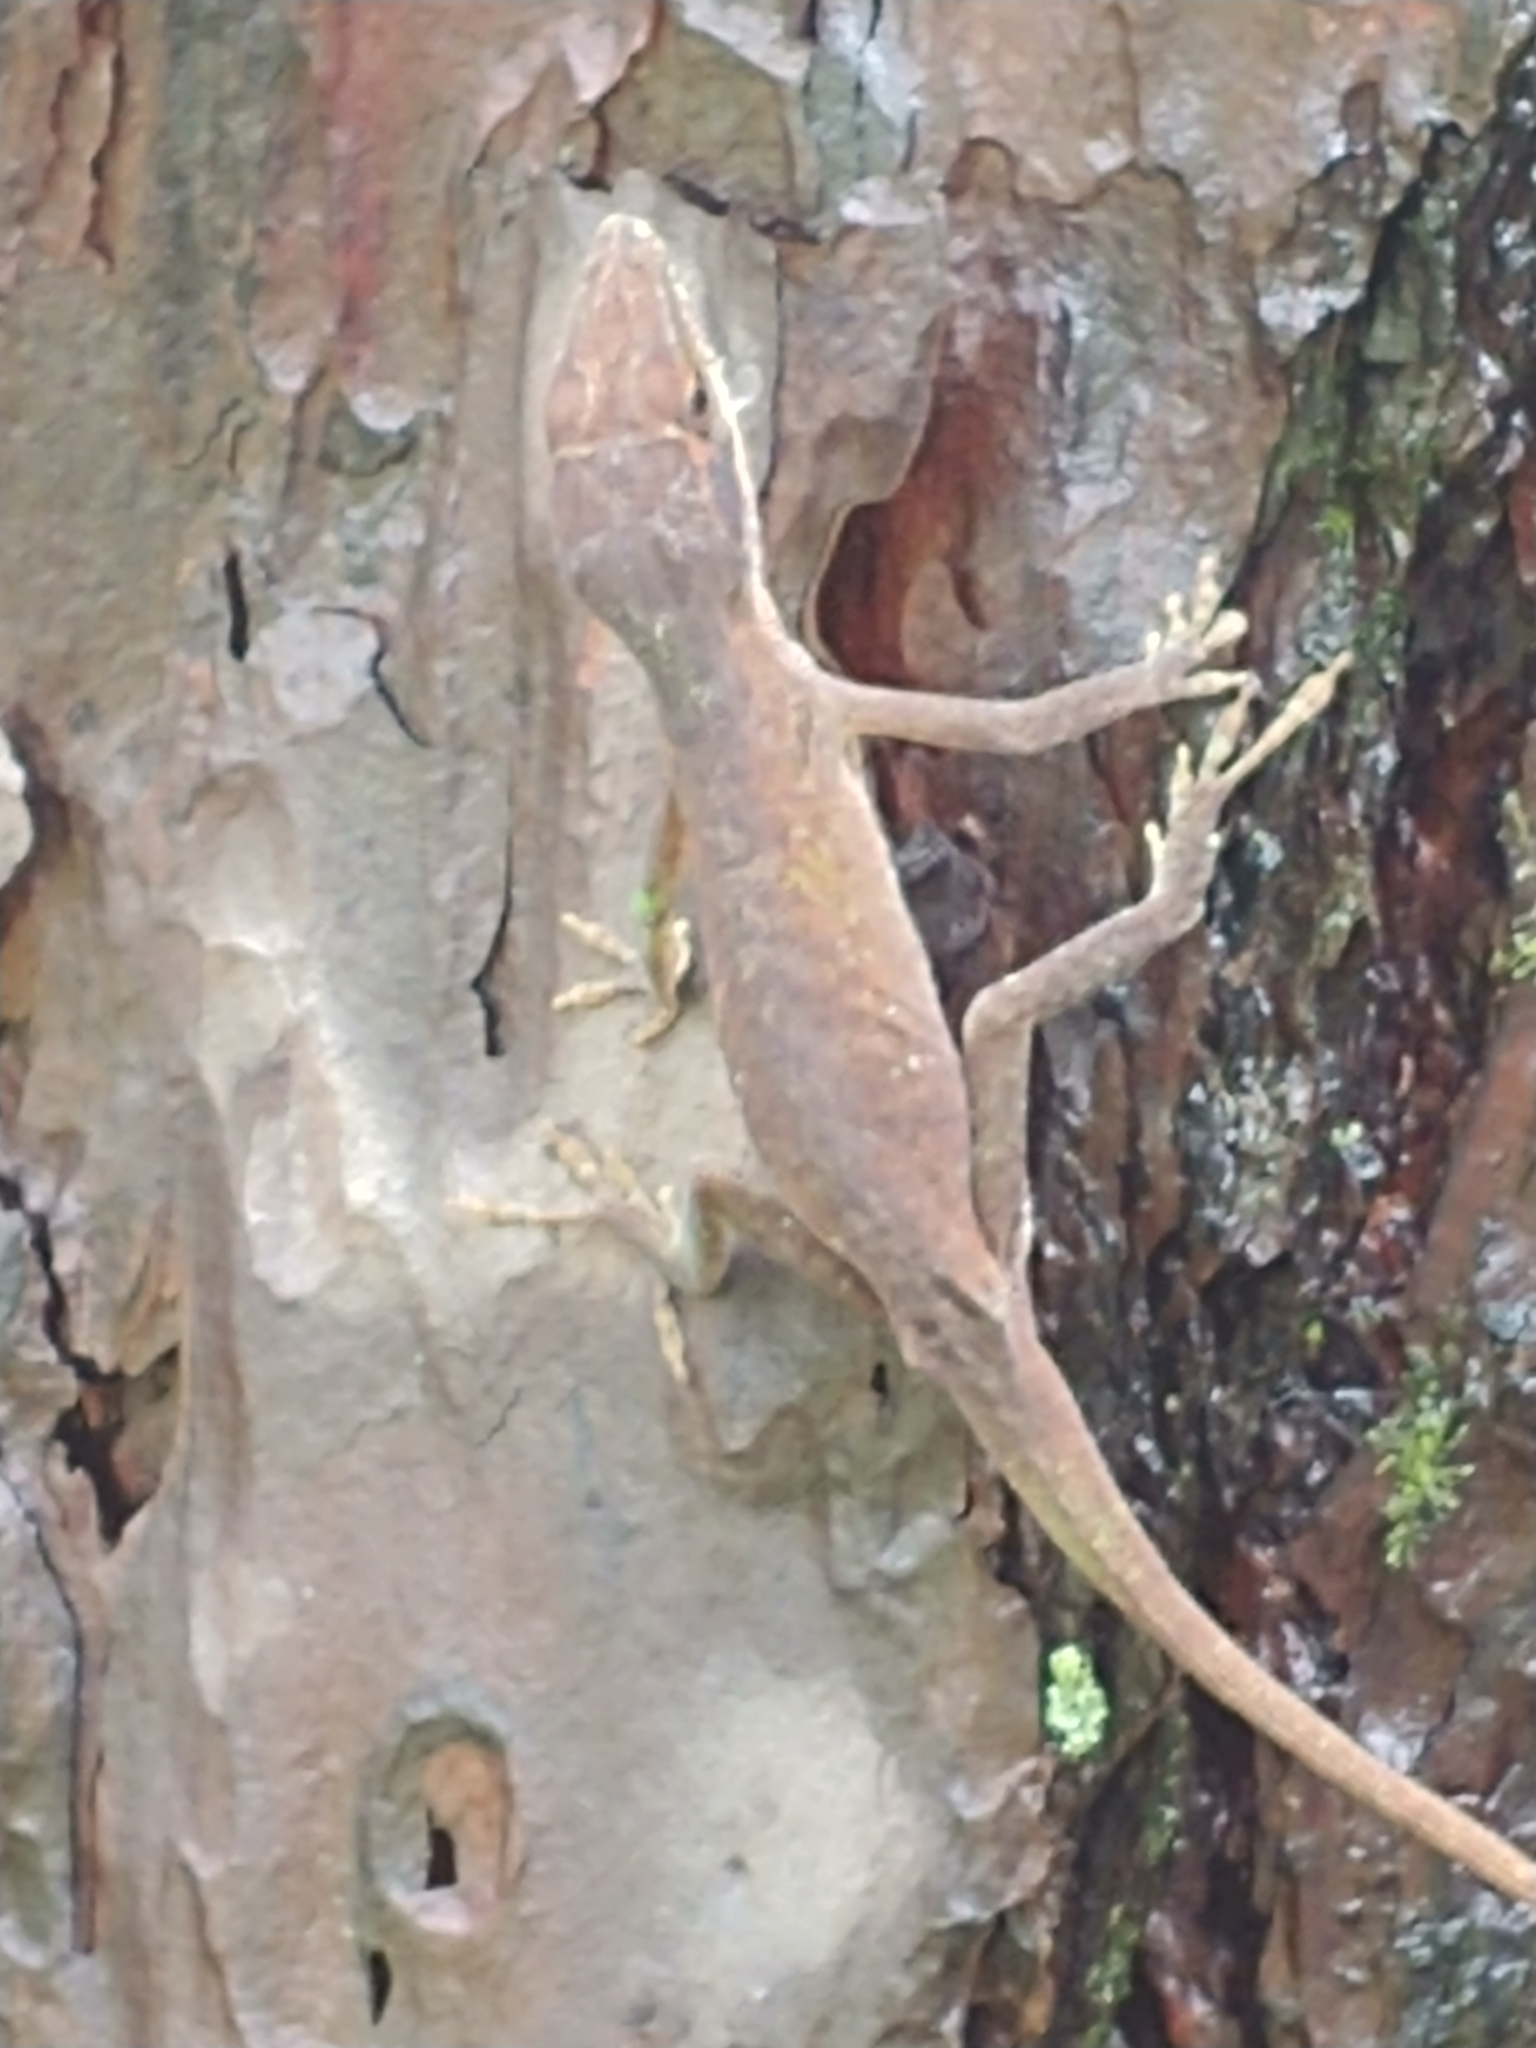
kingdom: Animalia
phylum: Chordata
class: Squamata
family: Dactyloidae
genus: Anolis
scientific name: Anolis carolinensis
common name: Green anole
